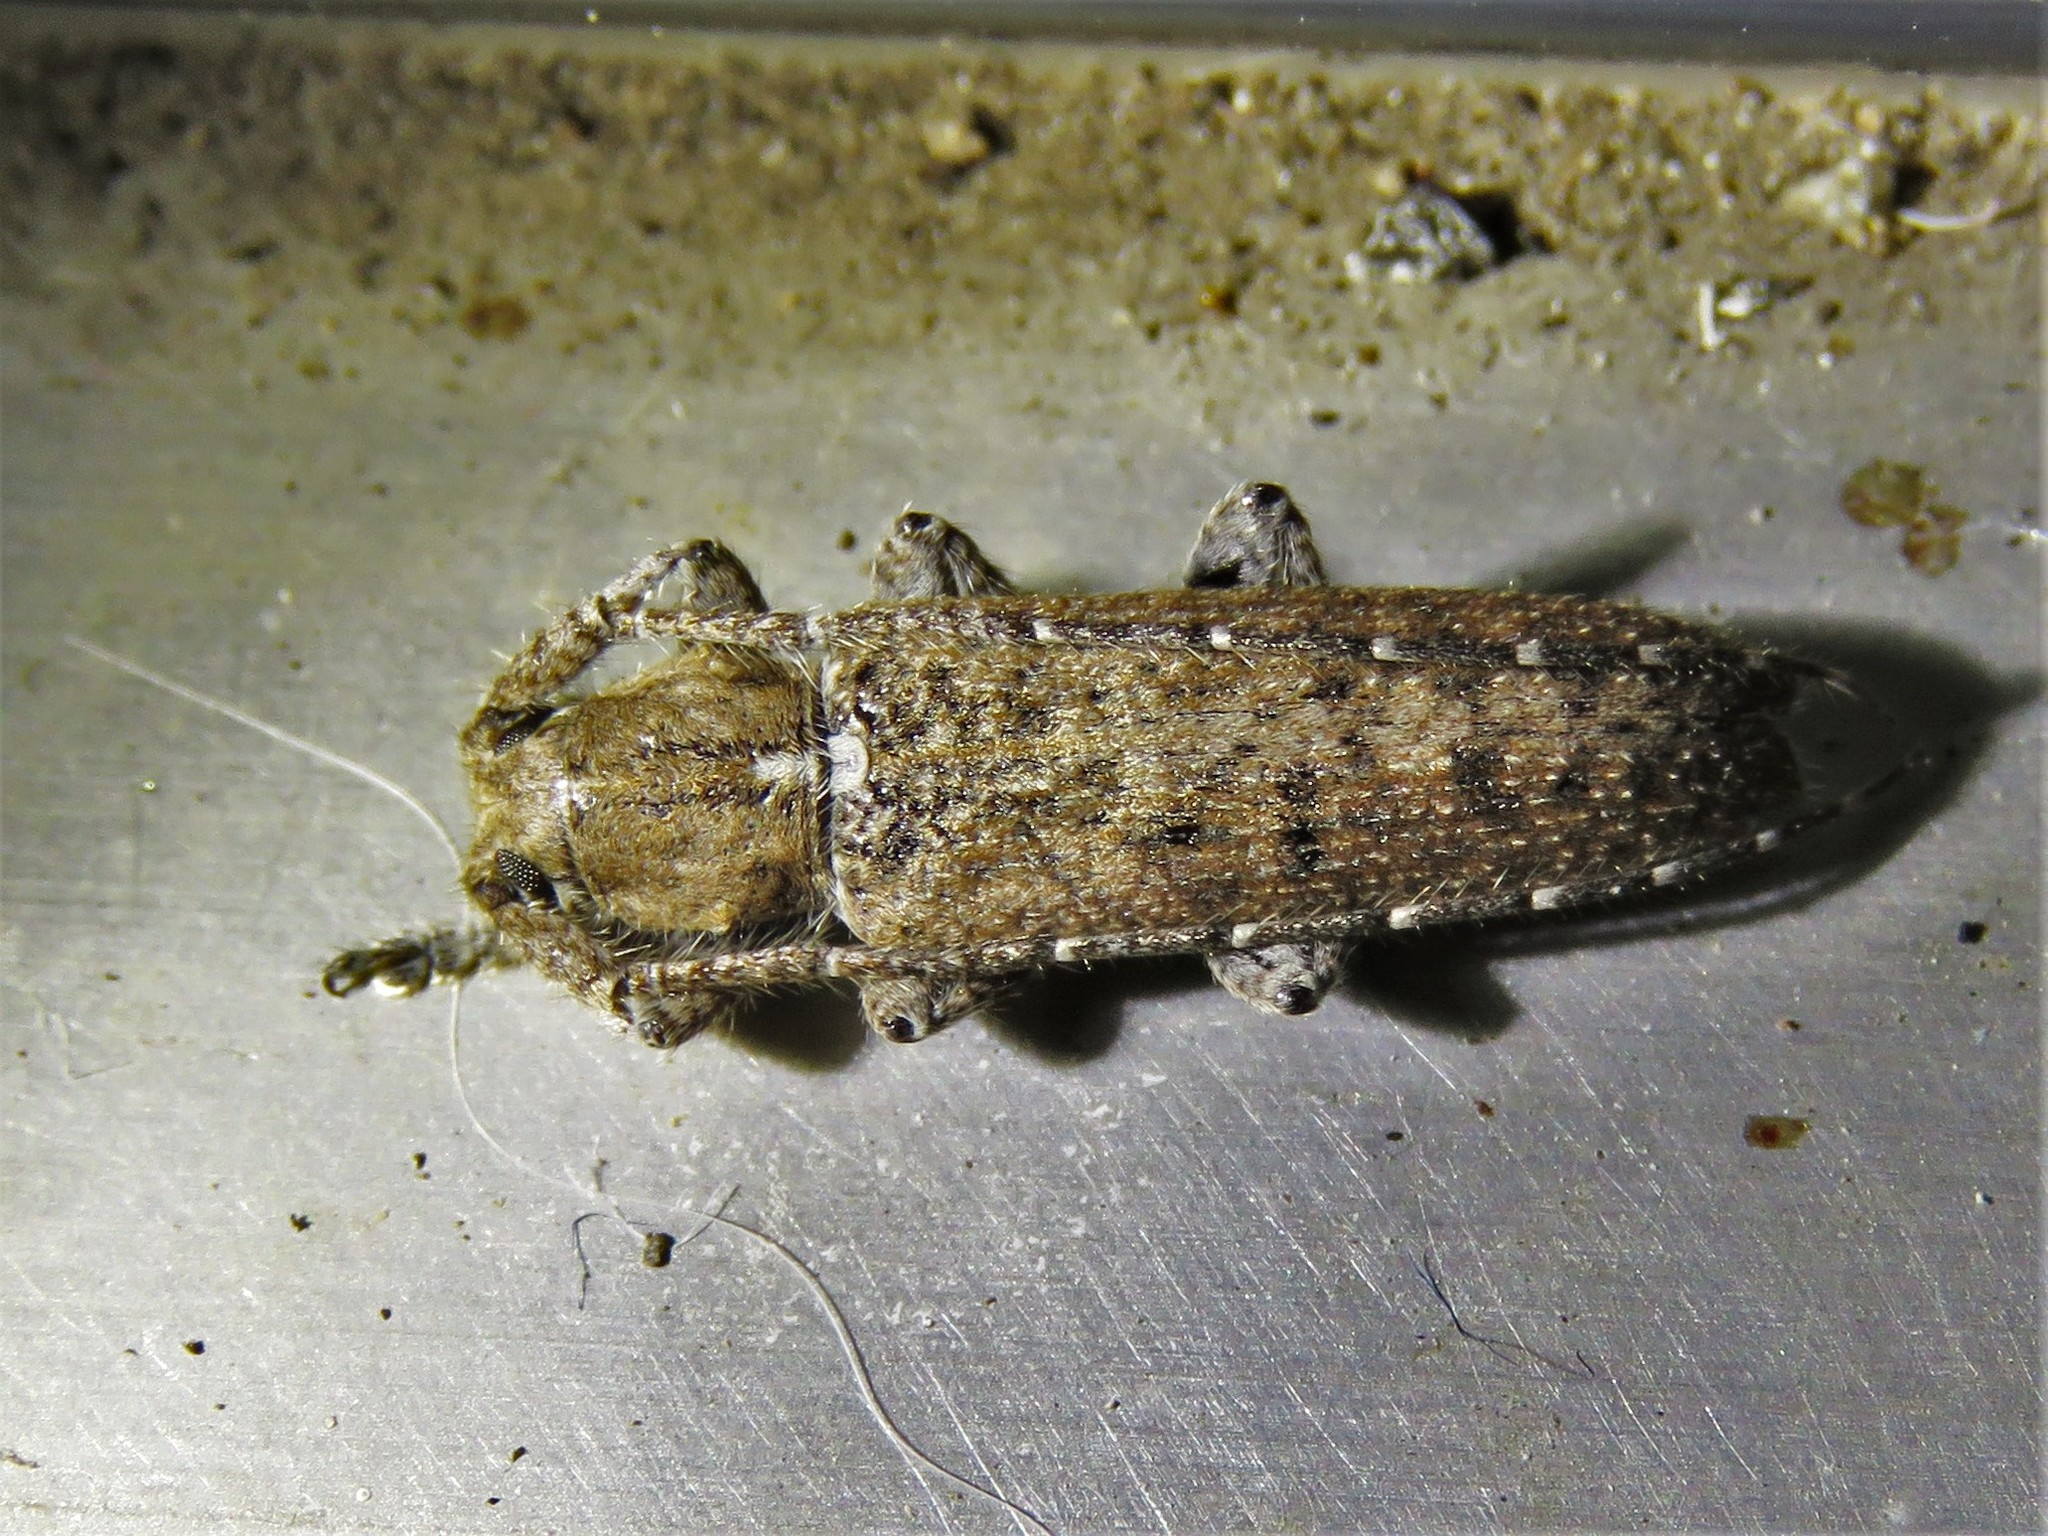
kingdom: Animalia
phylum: Arthropoda
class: Insecta
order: Coleoptera
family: Cerambycidae
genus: Ataxia
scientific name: Ataxia crypta
